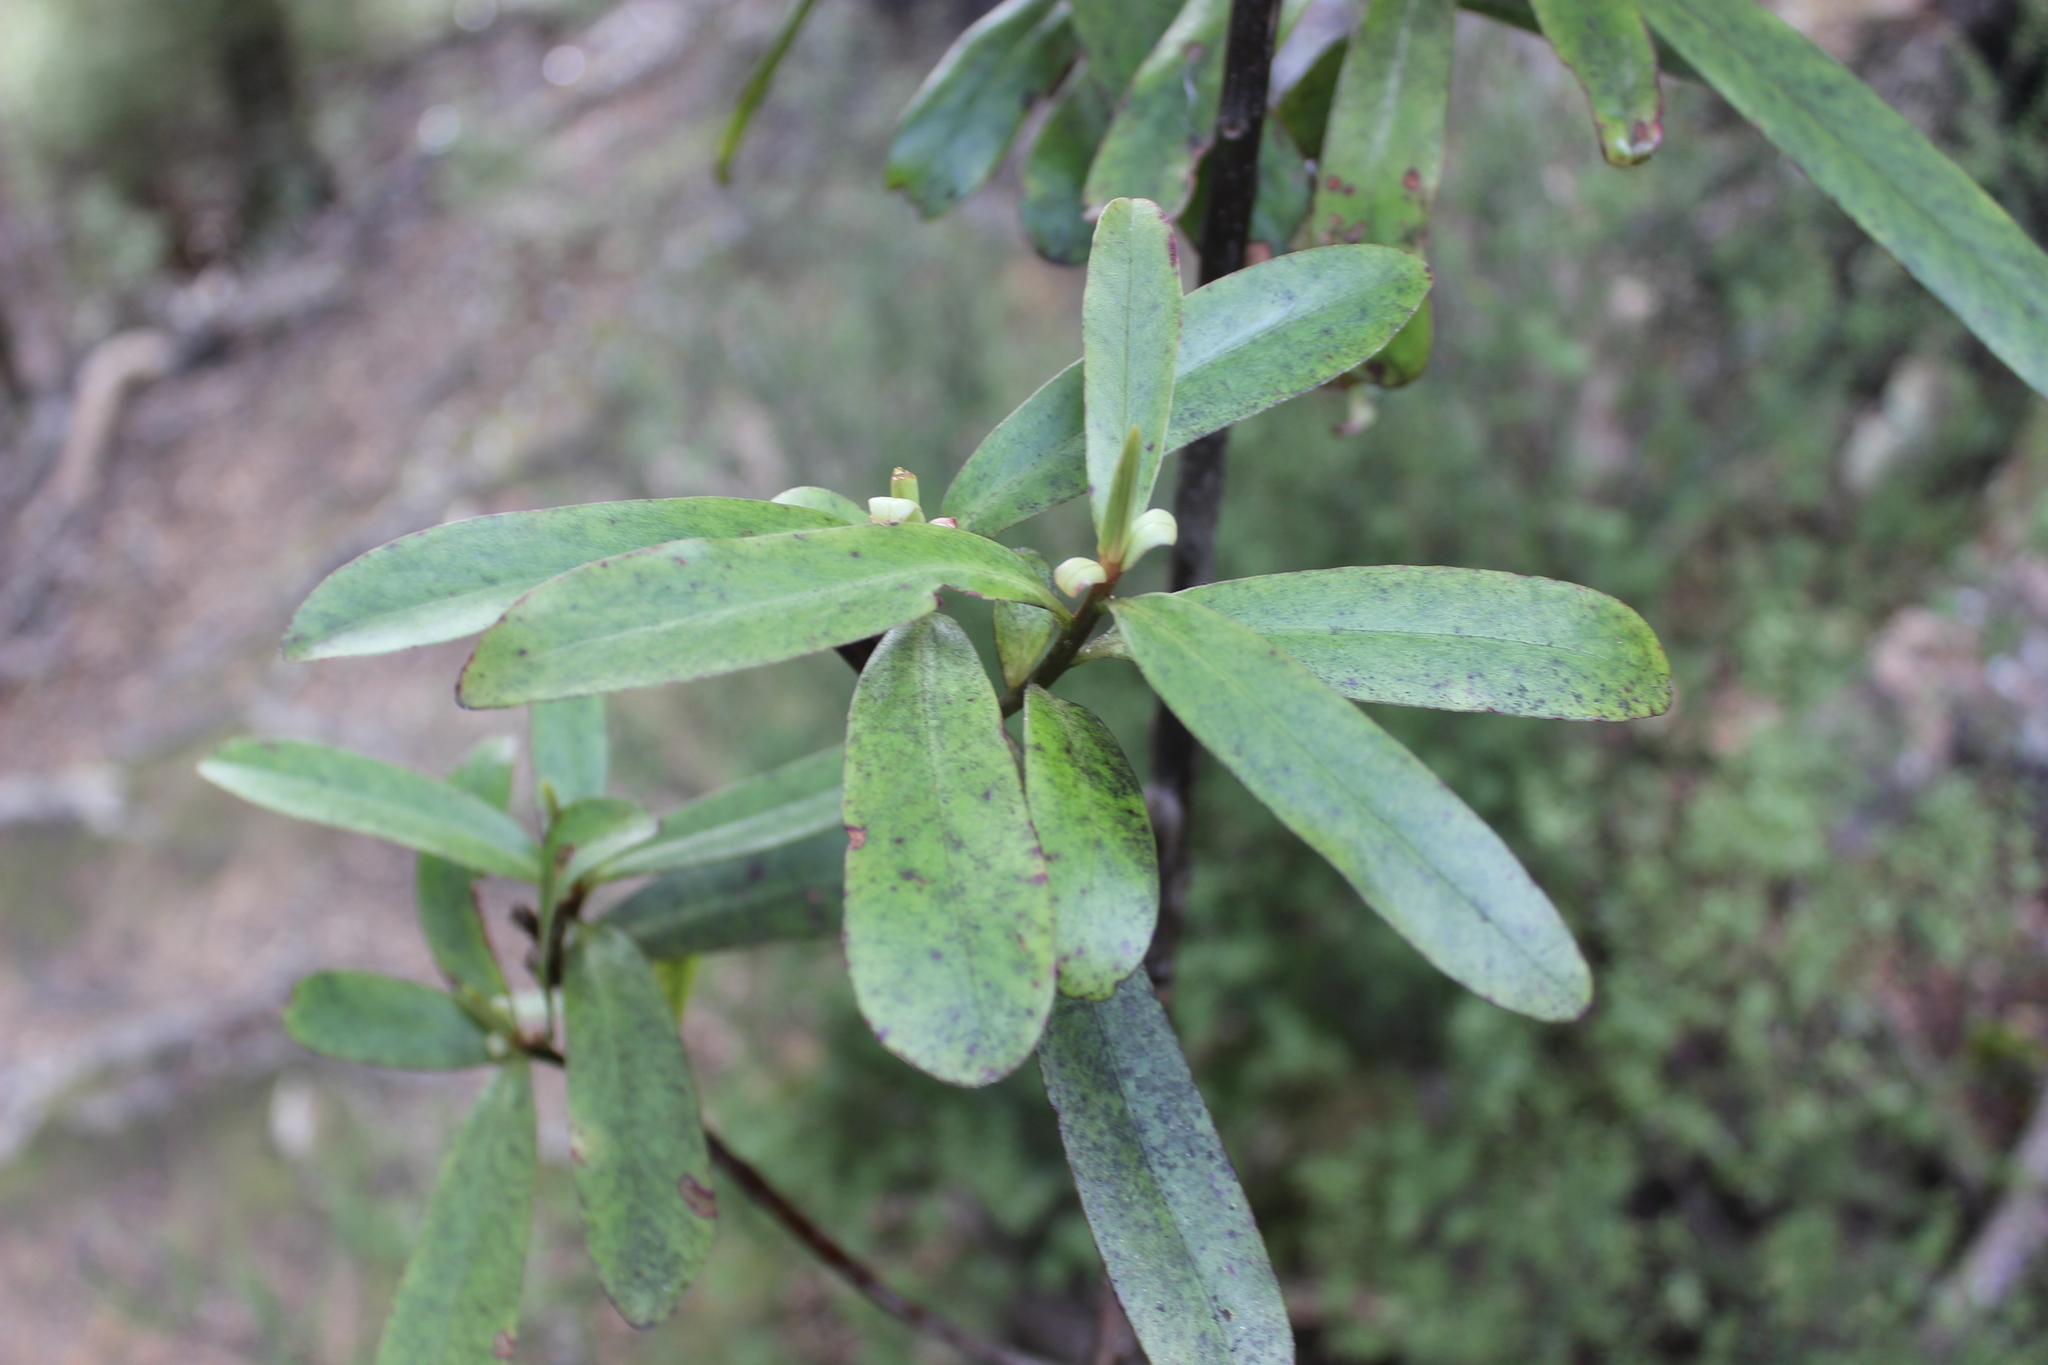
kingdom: Plantae
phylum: Tracheophyta
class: Magnoliopsida
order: Ericales
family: Primulaceae
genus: Myrsine
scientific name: Myrsine salicina
